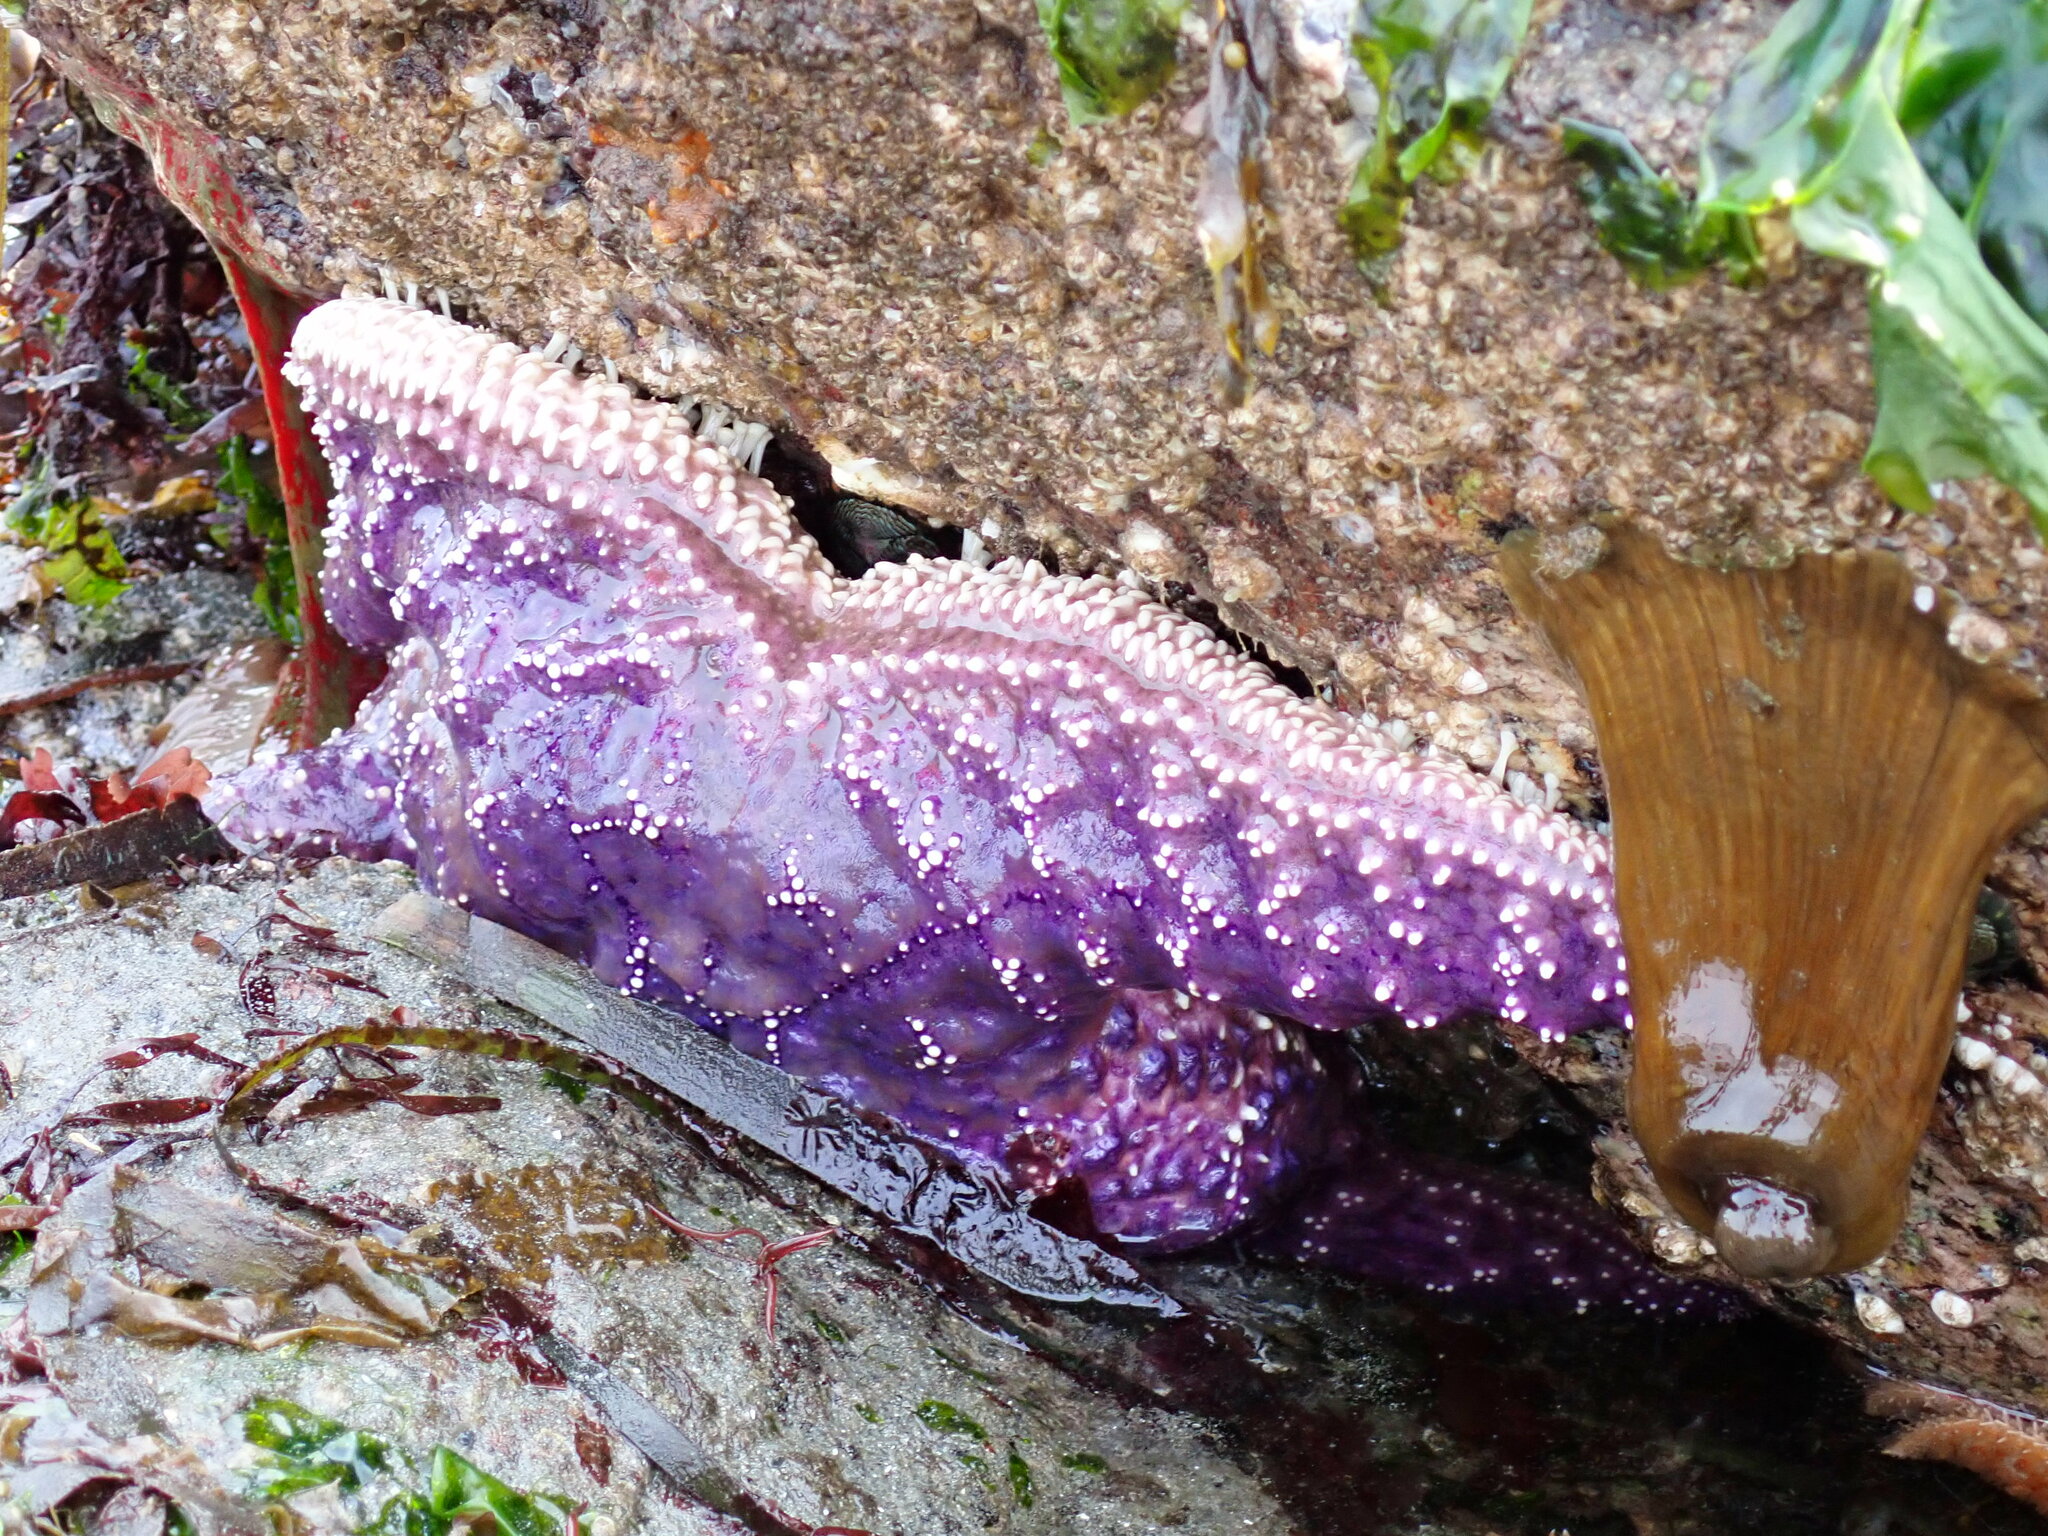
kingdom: Animalia
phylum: Echinodermata
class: Asteroidea
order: Forcipulatida
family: Asteriidae
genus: Pisaster
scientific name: Pisaster ochraceus
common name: Ochre stars
